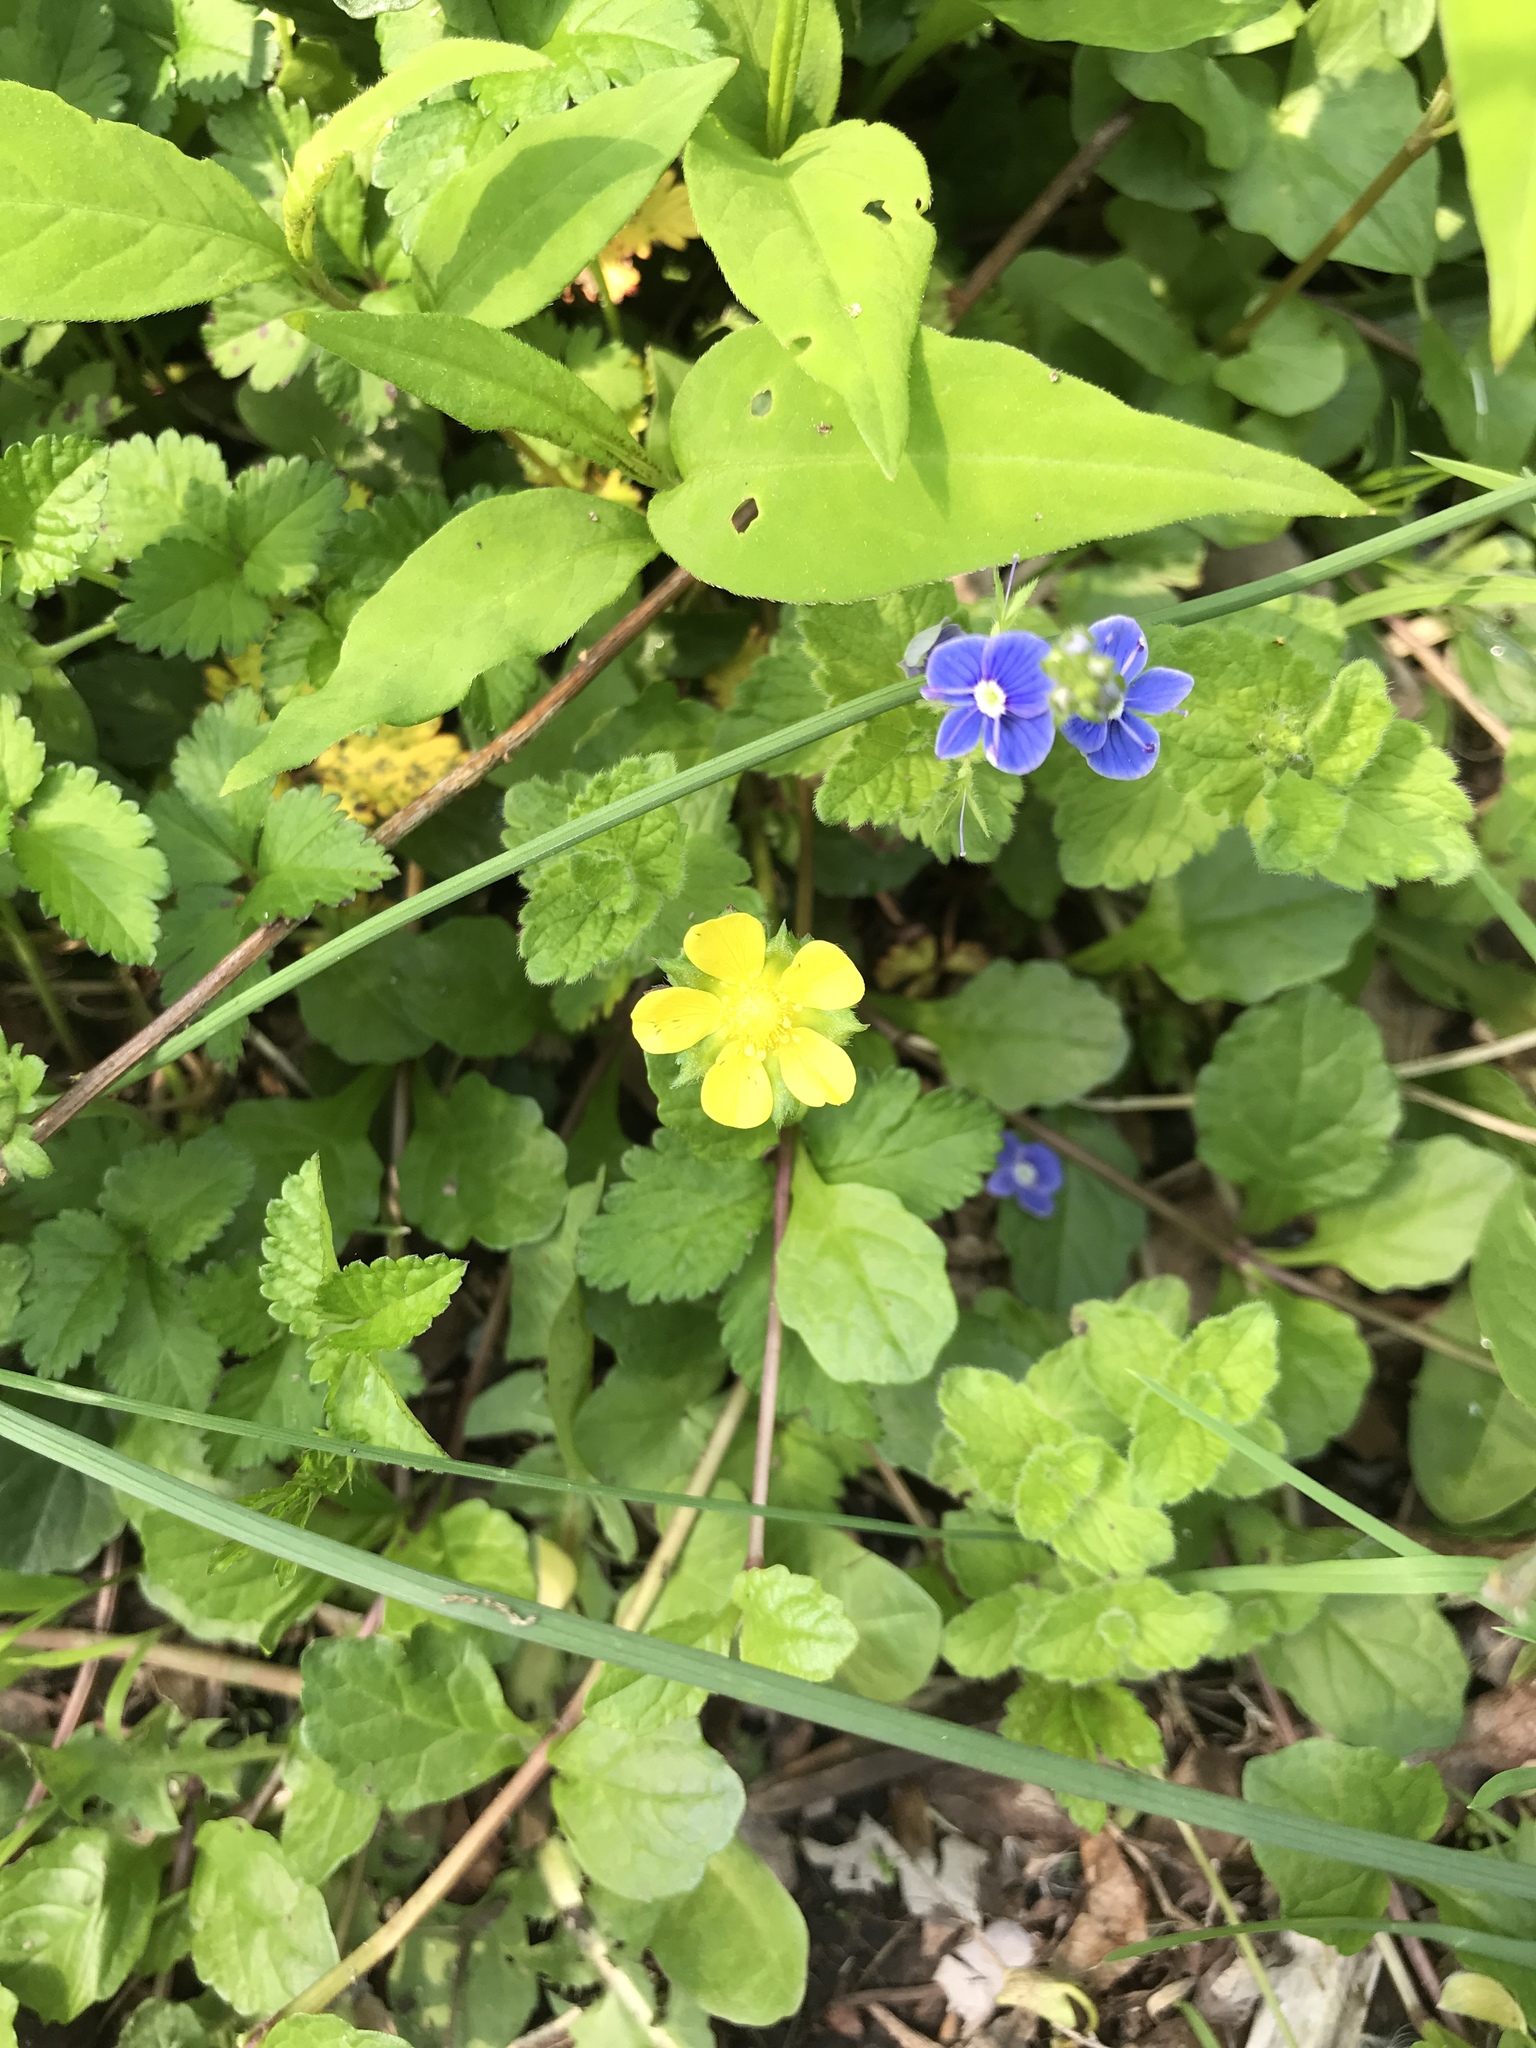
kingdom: Plantae
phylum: Tracheophyta
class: Magnoliopsida
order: Rosales
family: Rosaceae
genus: Potentilla
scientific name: Potentilla indica
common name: Yellow-flowered strawberry
